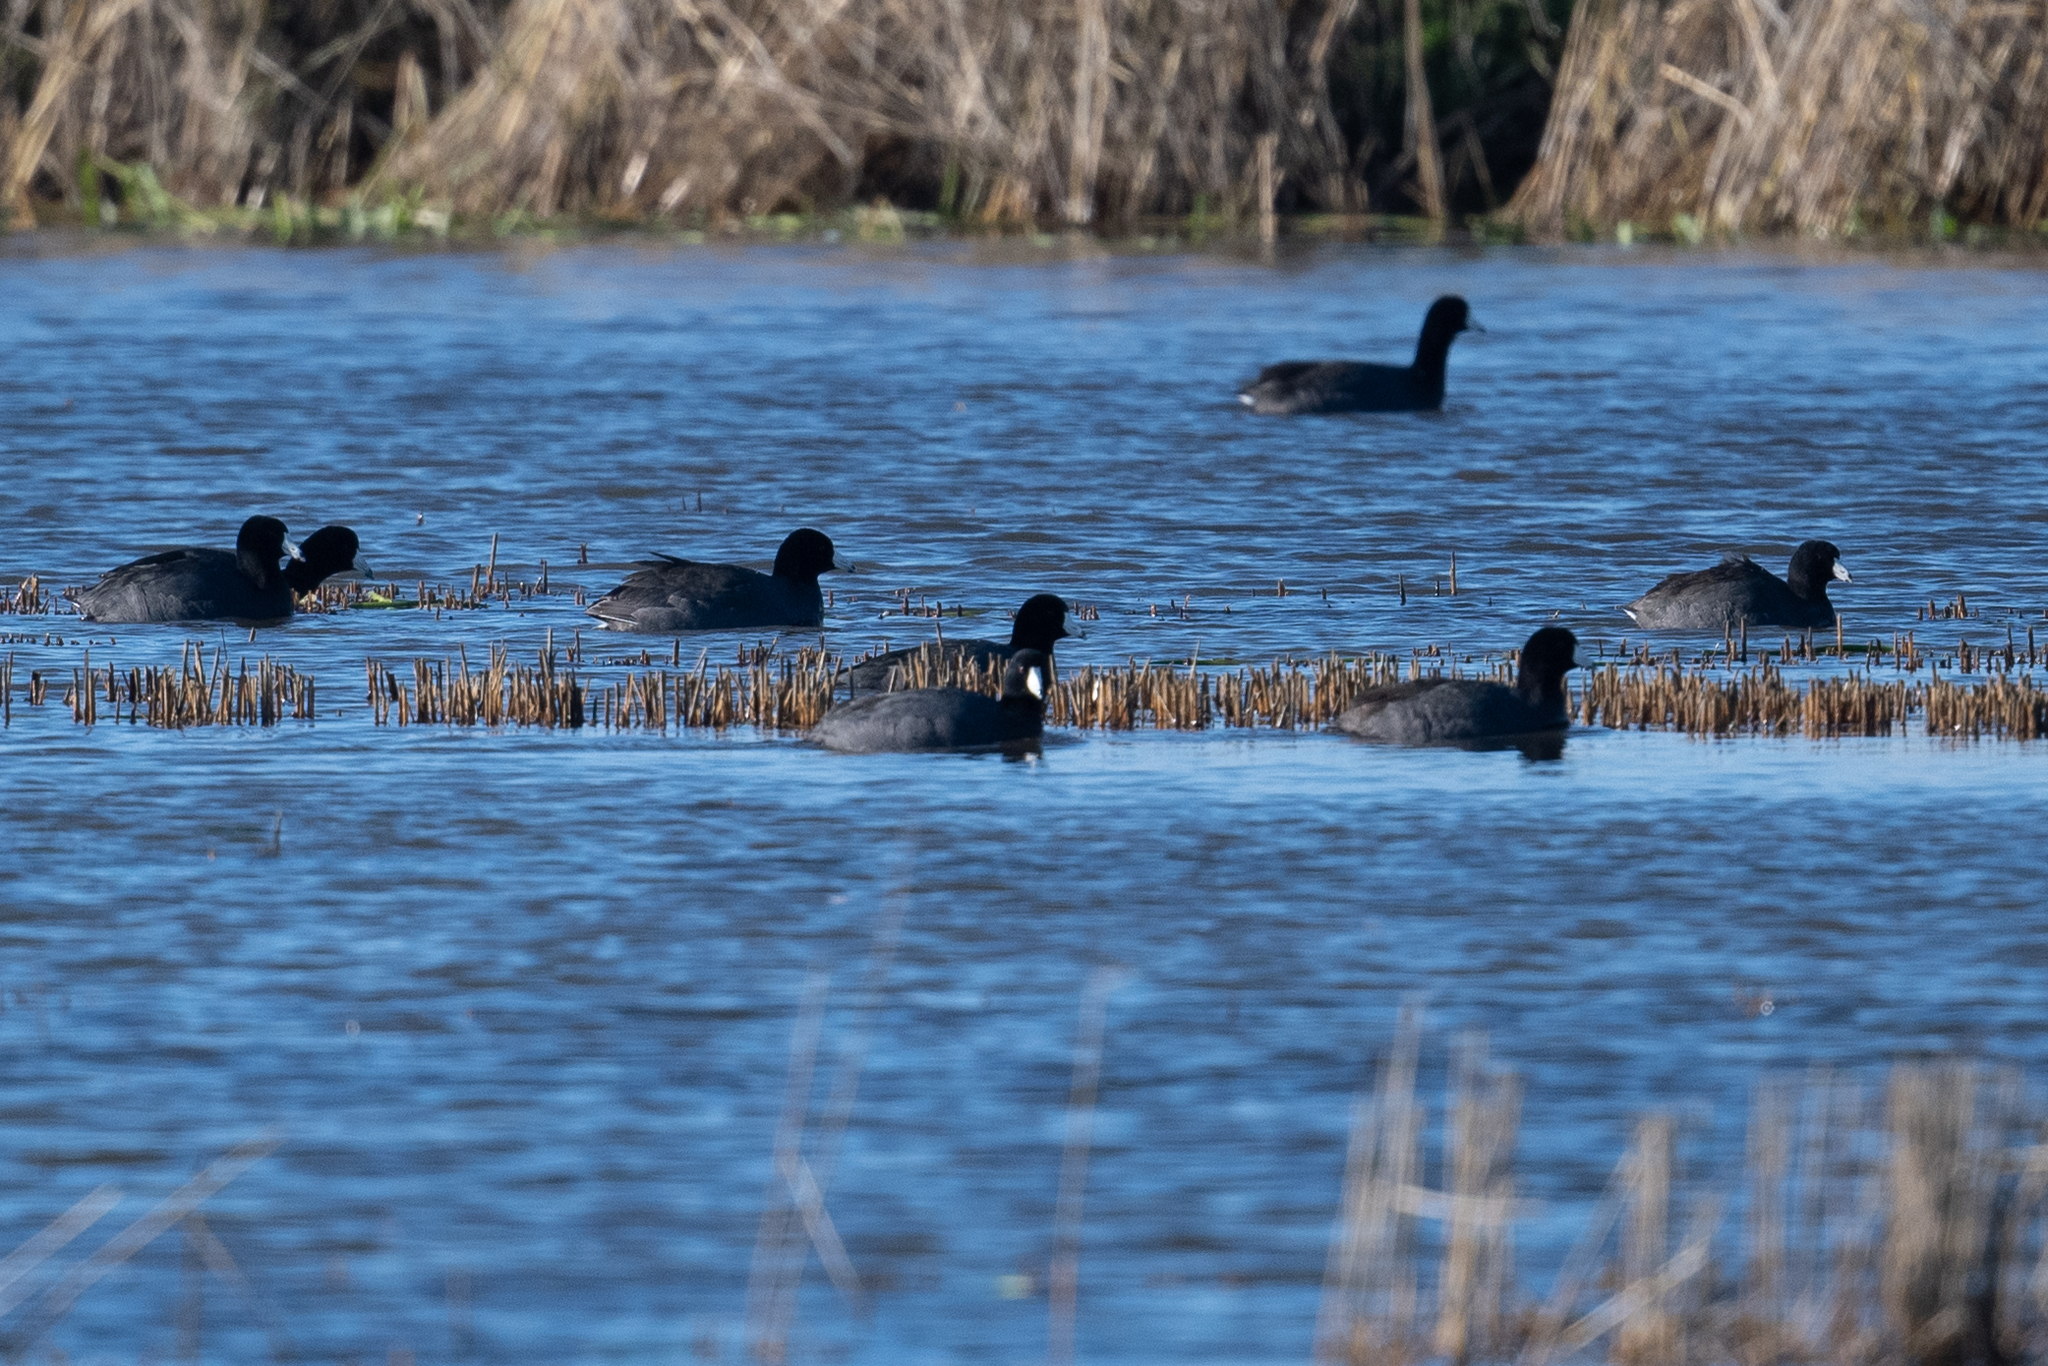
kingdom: Animalia
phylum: Chordata
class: Aves
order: Gruiformes
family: Rallidae
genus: Fulica
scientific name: Fulica americana
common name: American coot
